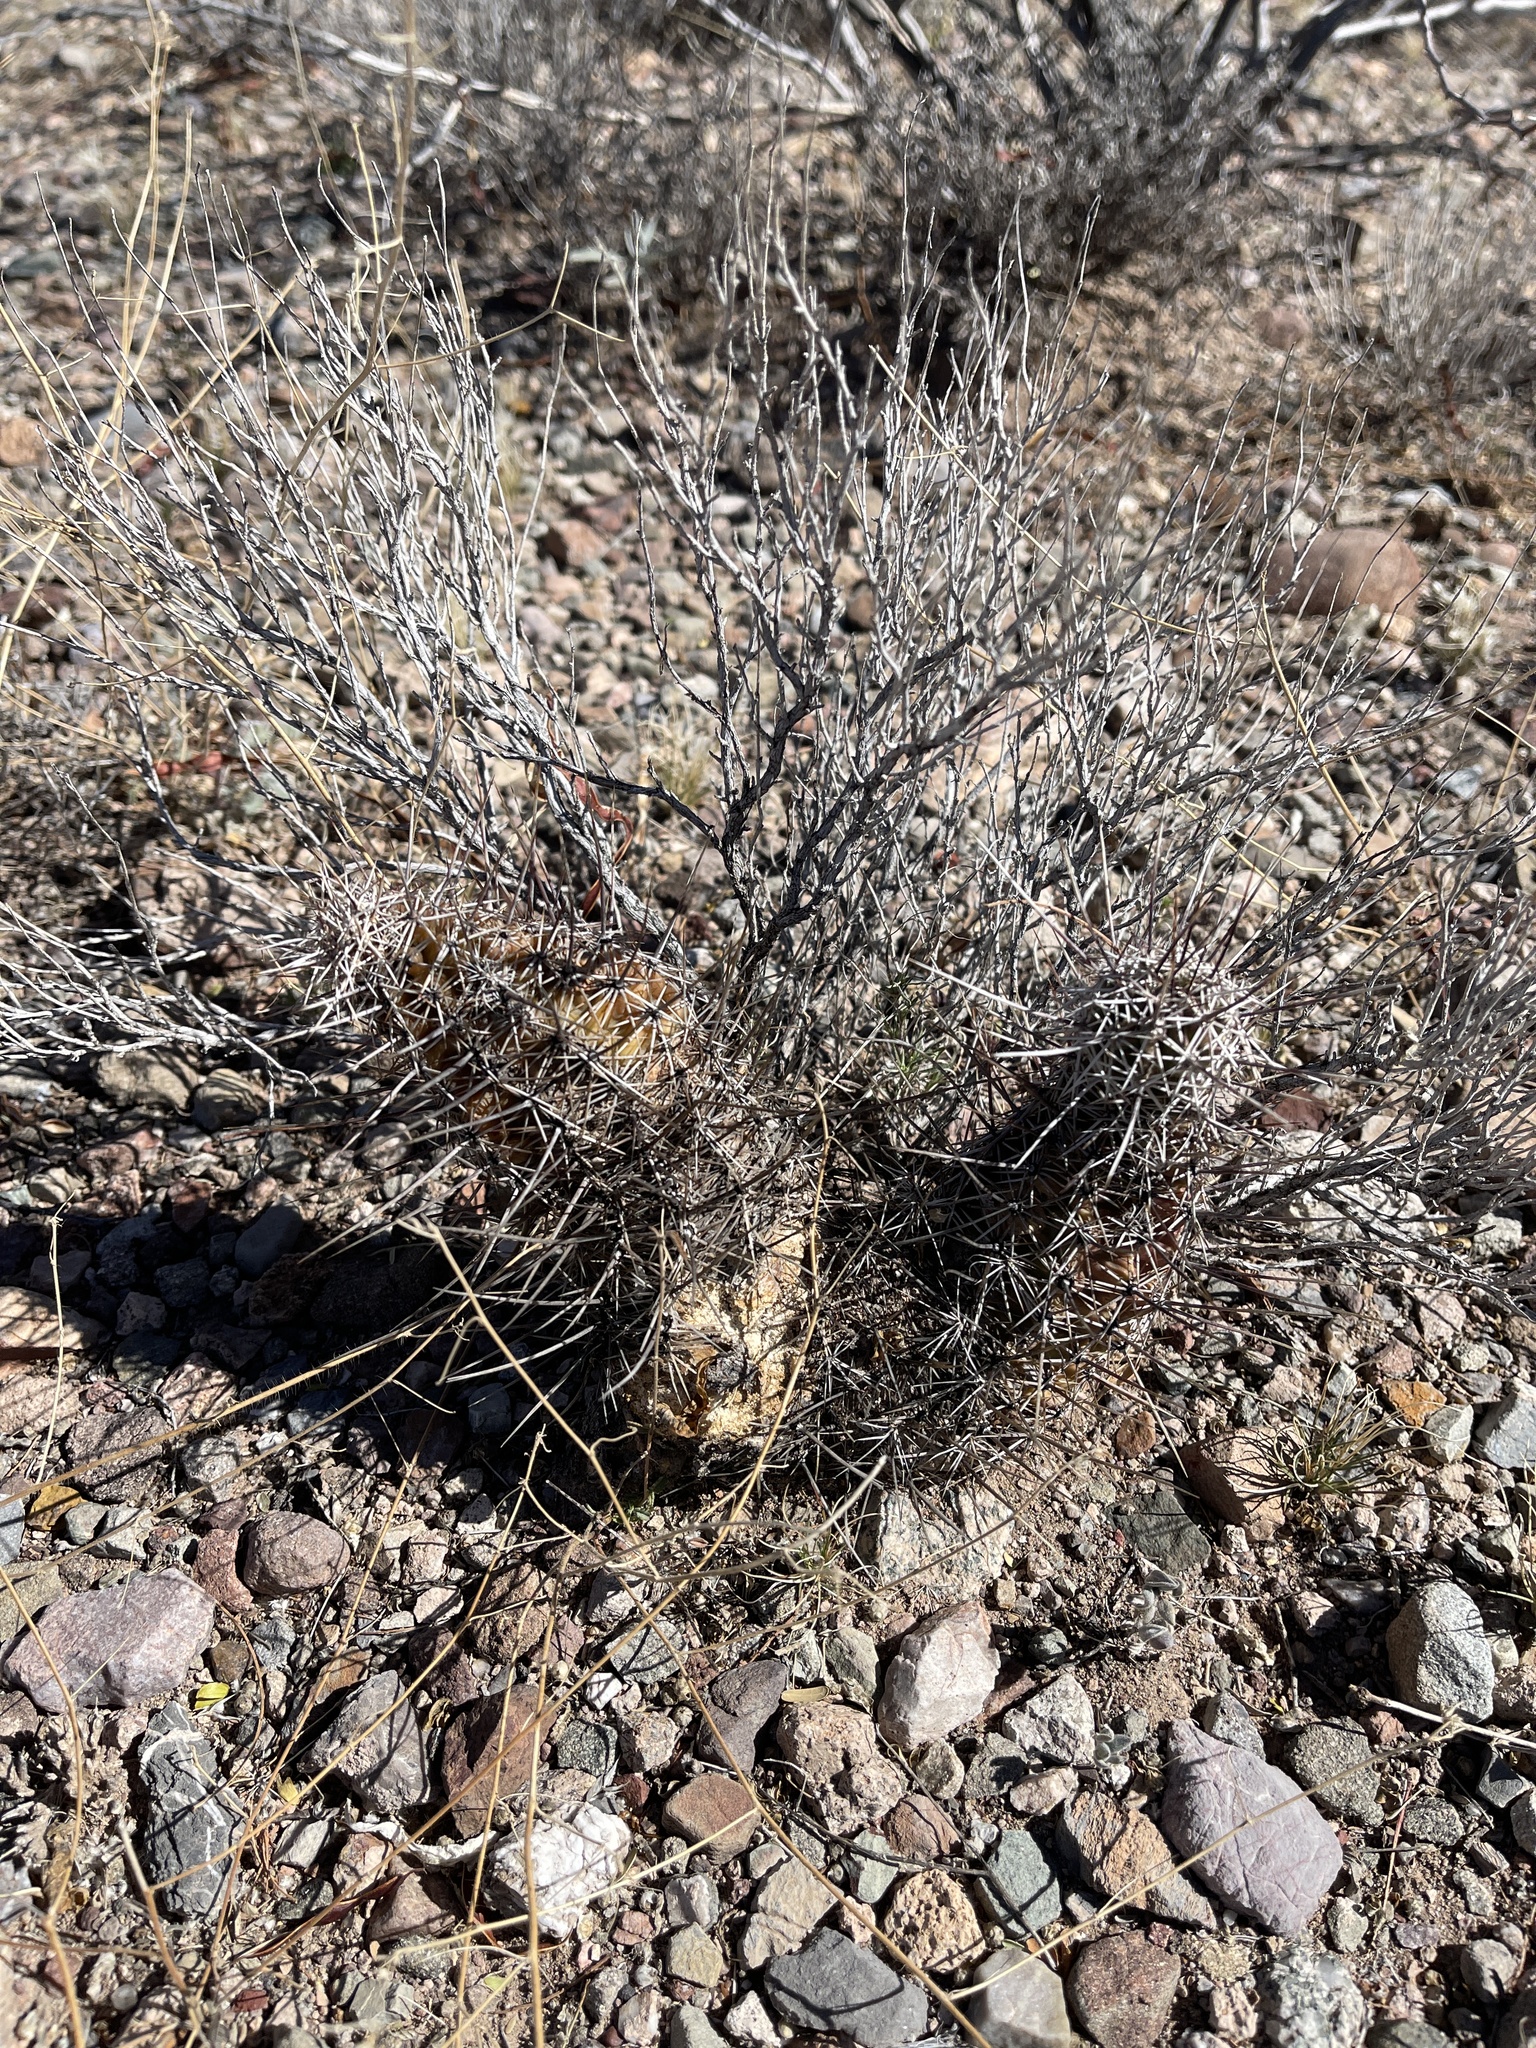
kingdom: Plantae
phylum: Tracheophyta
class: Magnoliopsida
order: Caryophyllales
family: Cactaceae
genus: Echinocereus
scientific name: Echinocereus fasciculatus
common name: Bundle hedgehog
